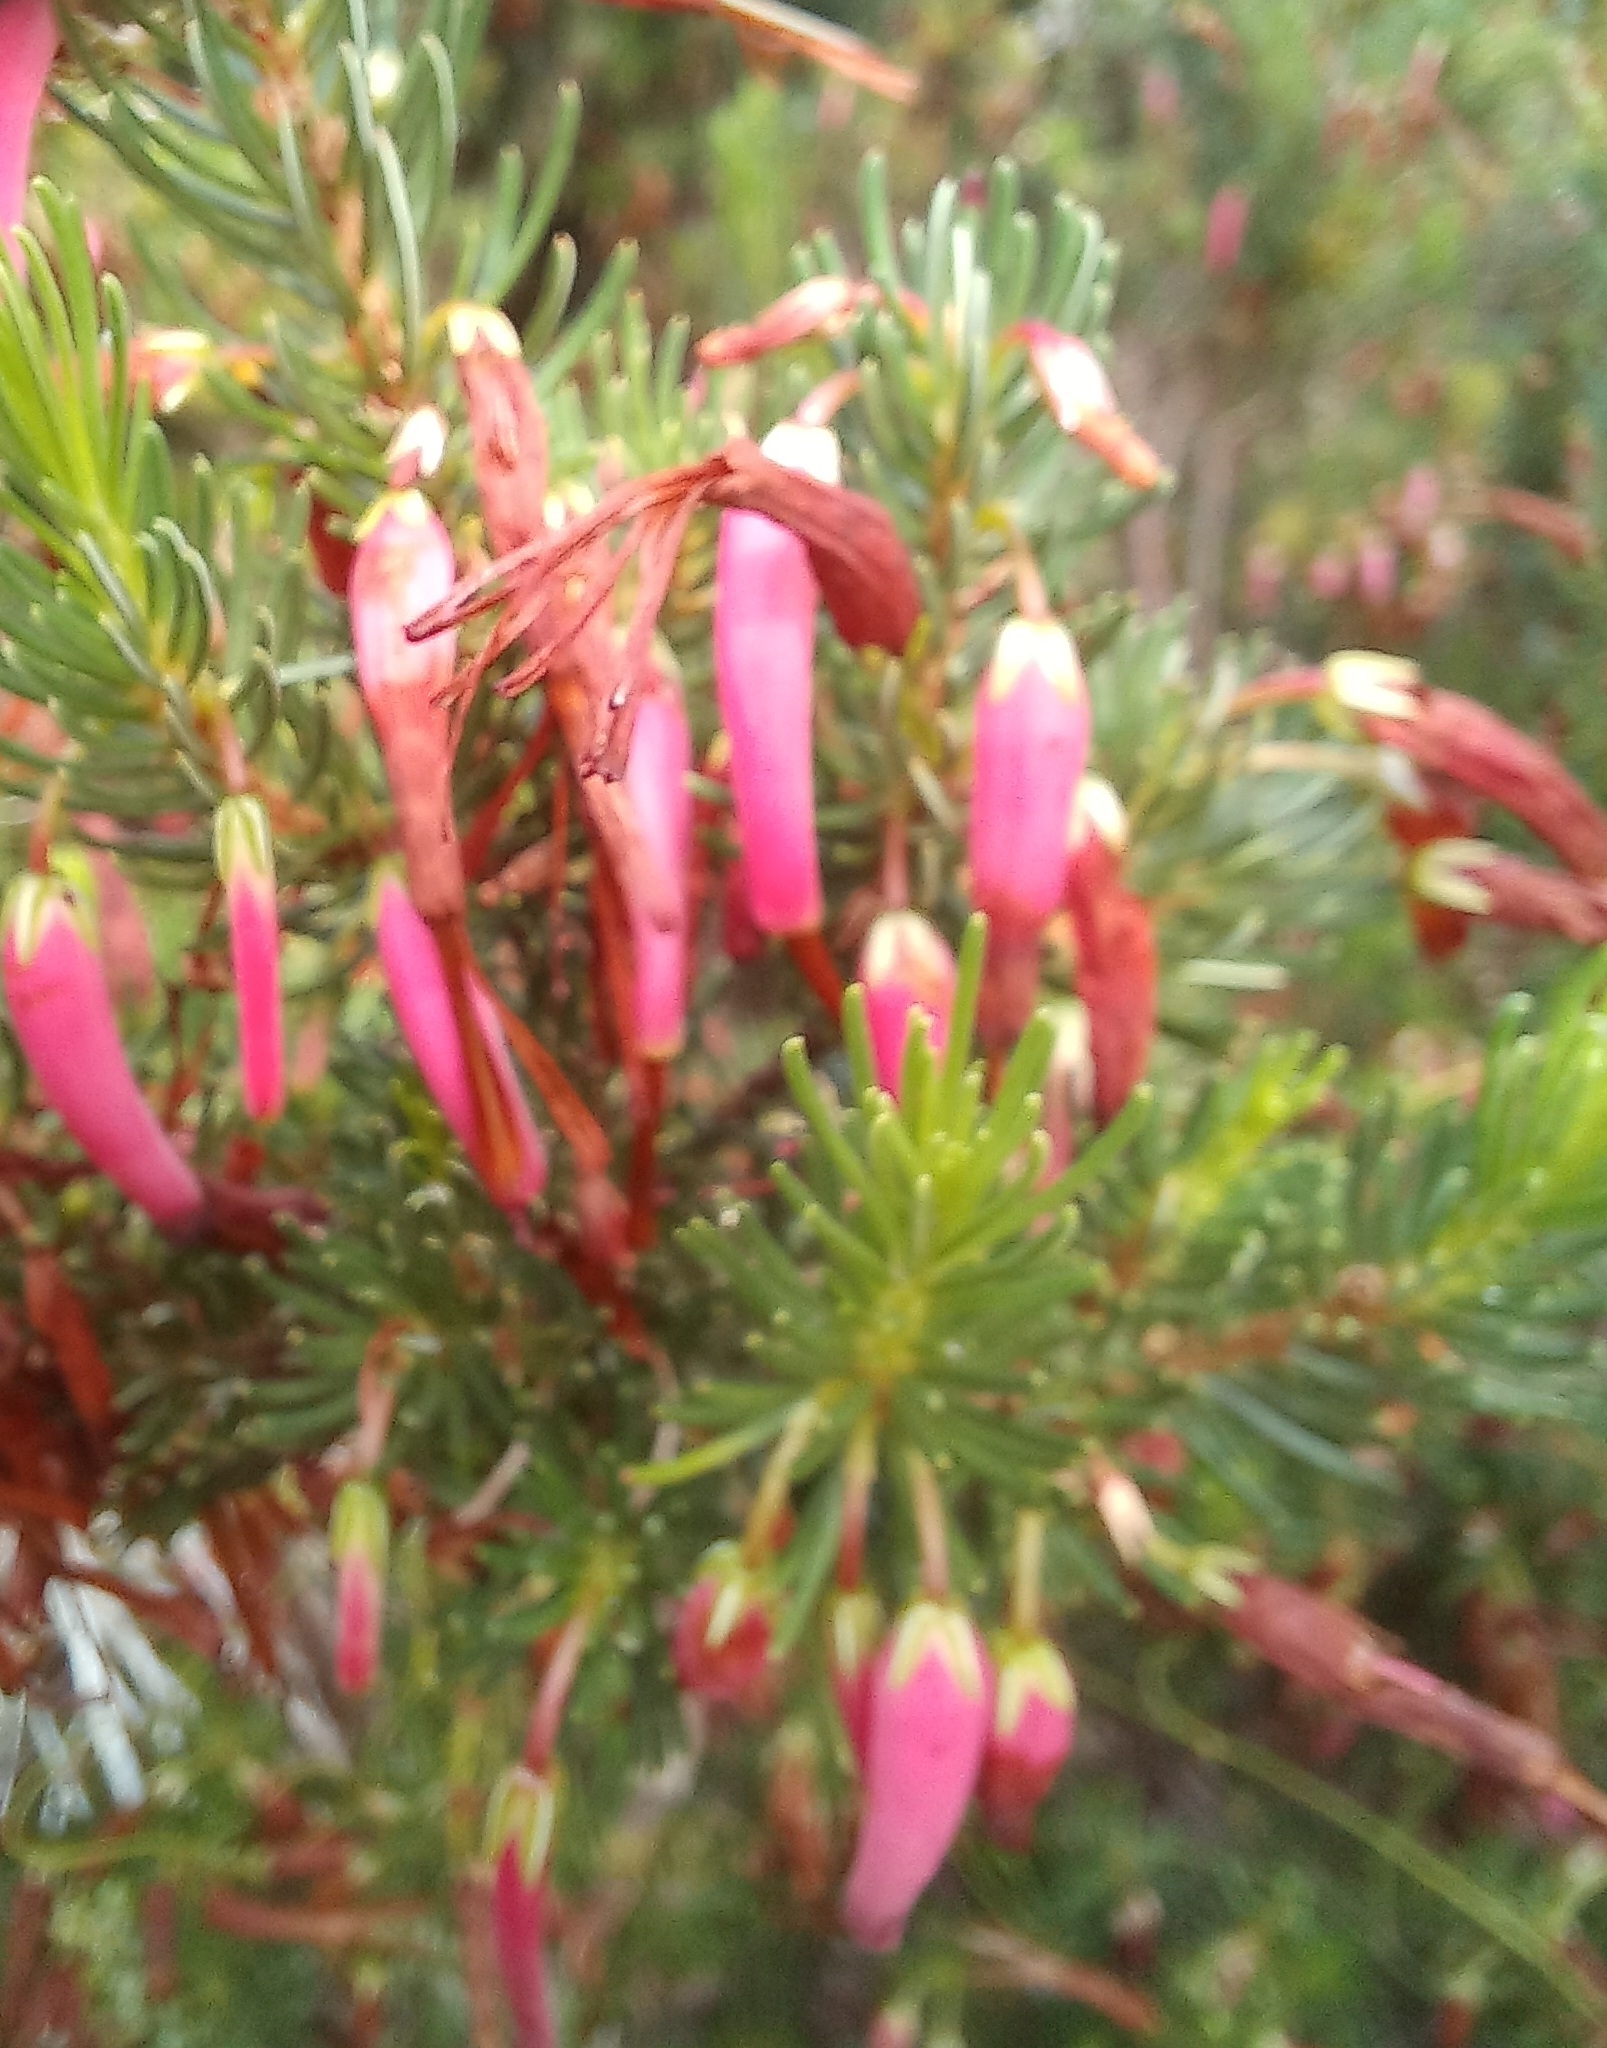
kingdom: Plantae
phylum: Tracheophyta
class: Magnoliopsida
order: Ericales
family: Ericaceae
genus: Erica
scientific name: Erica plukenetii
